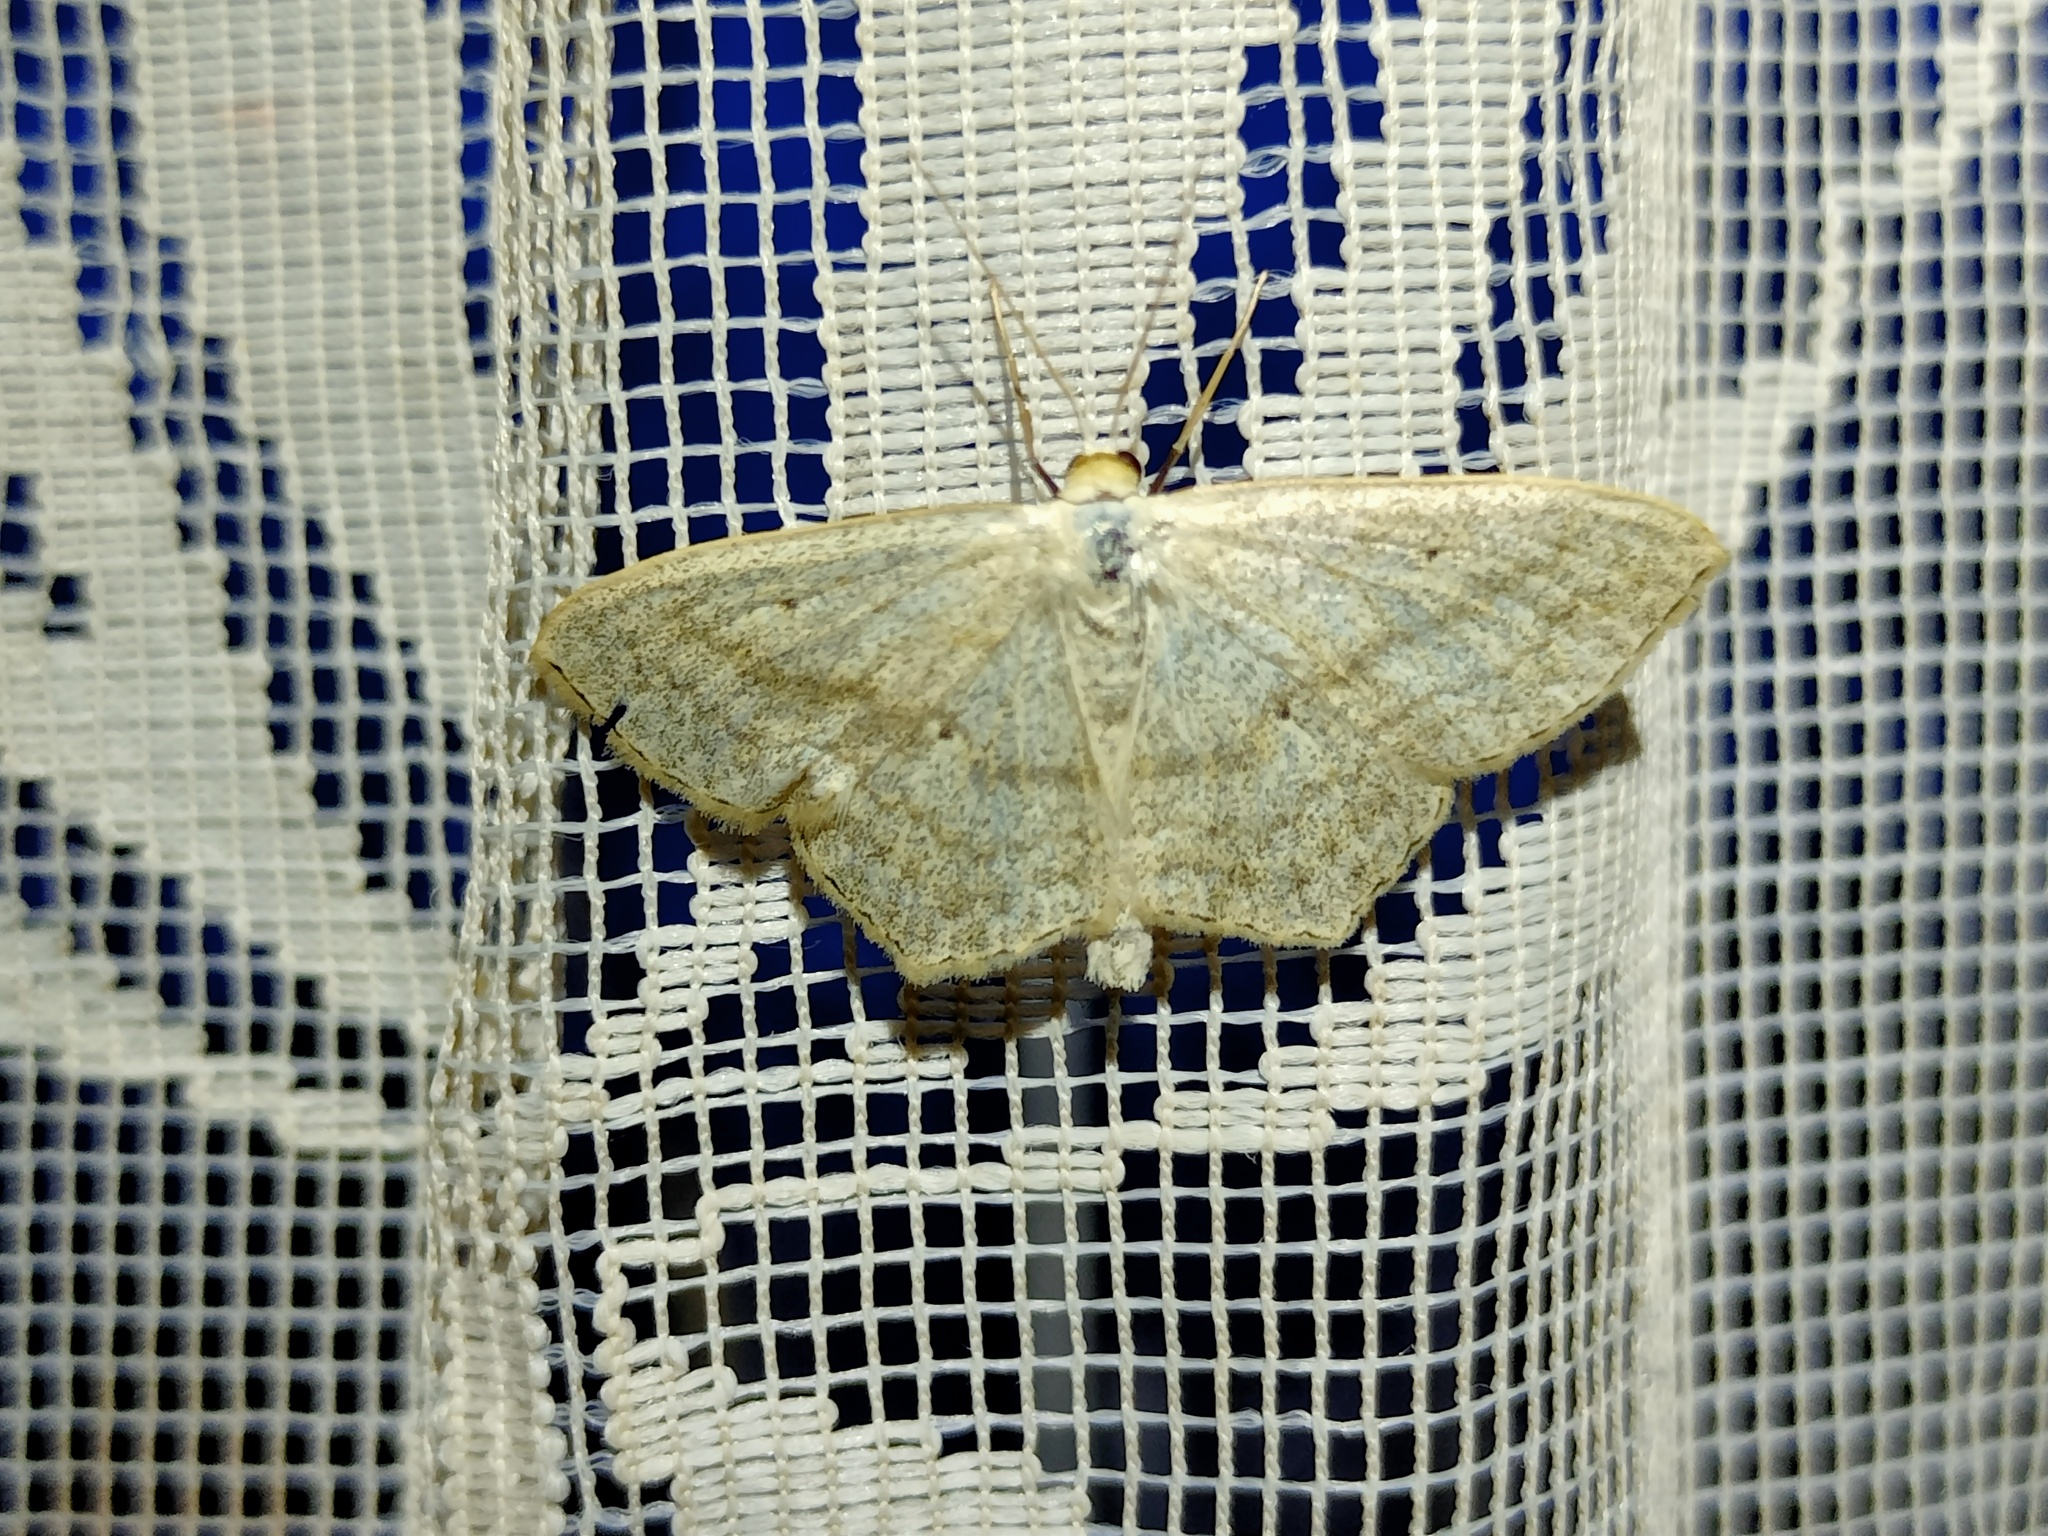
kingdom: Animalia
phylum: Arthropoda
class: Insecta
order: Lepidoptera
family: Geometridae
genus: Scopula
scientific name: Scopula nigropunctata
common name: Sub-angled wave
